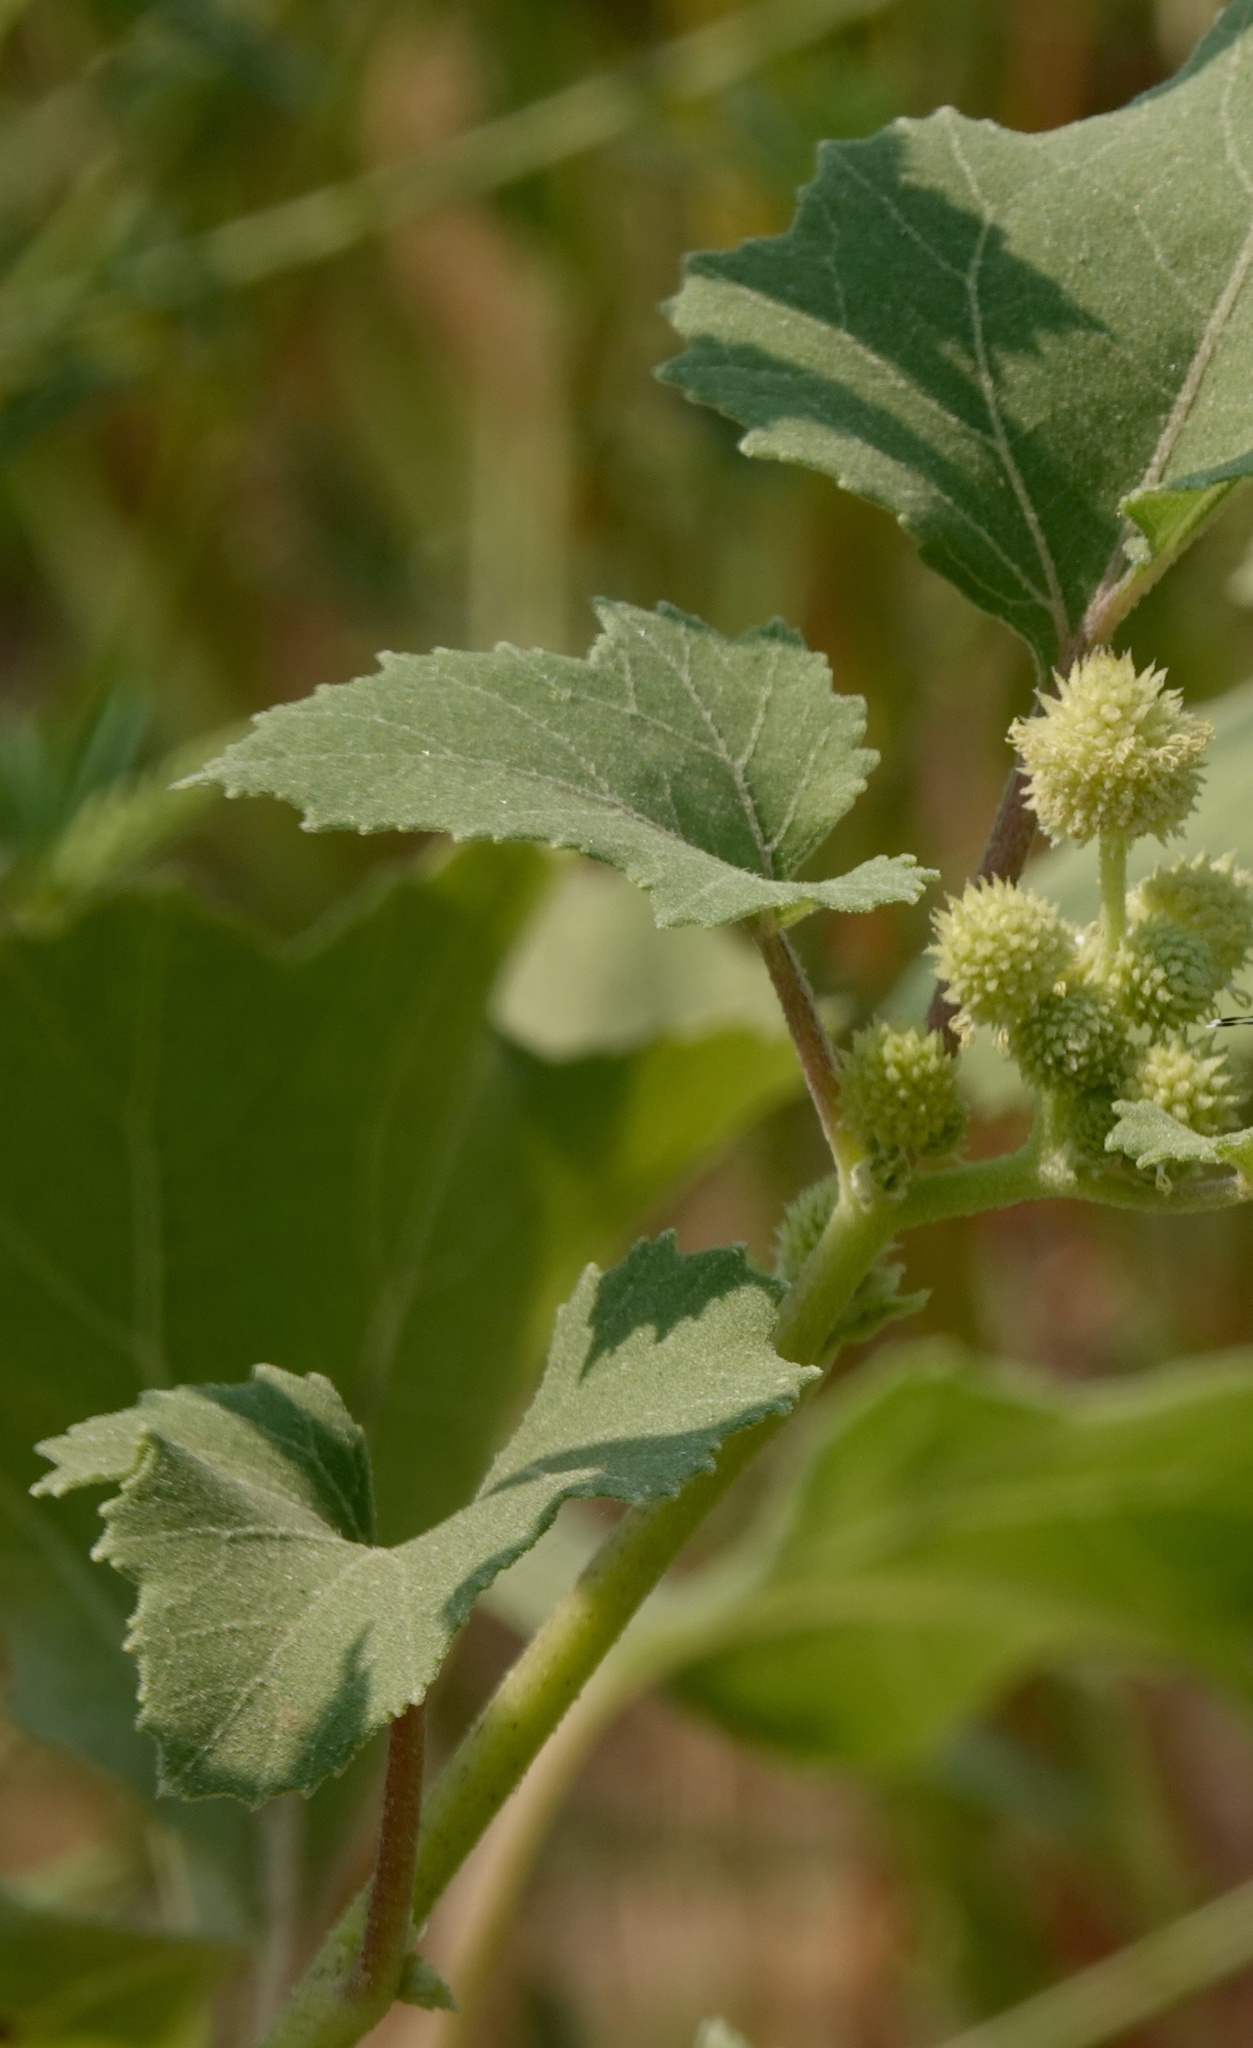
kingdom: Plantae
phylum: Tracheophyta
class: Magnoliopsida
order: Asterales
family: Asteraceae
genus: Xanthium
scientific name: Xanthium strumarium
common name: Rough cocklebur
